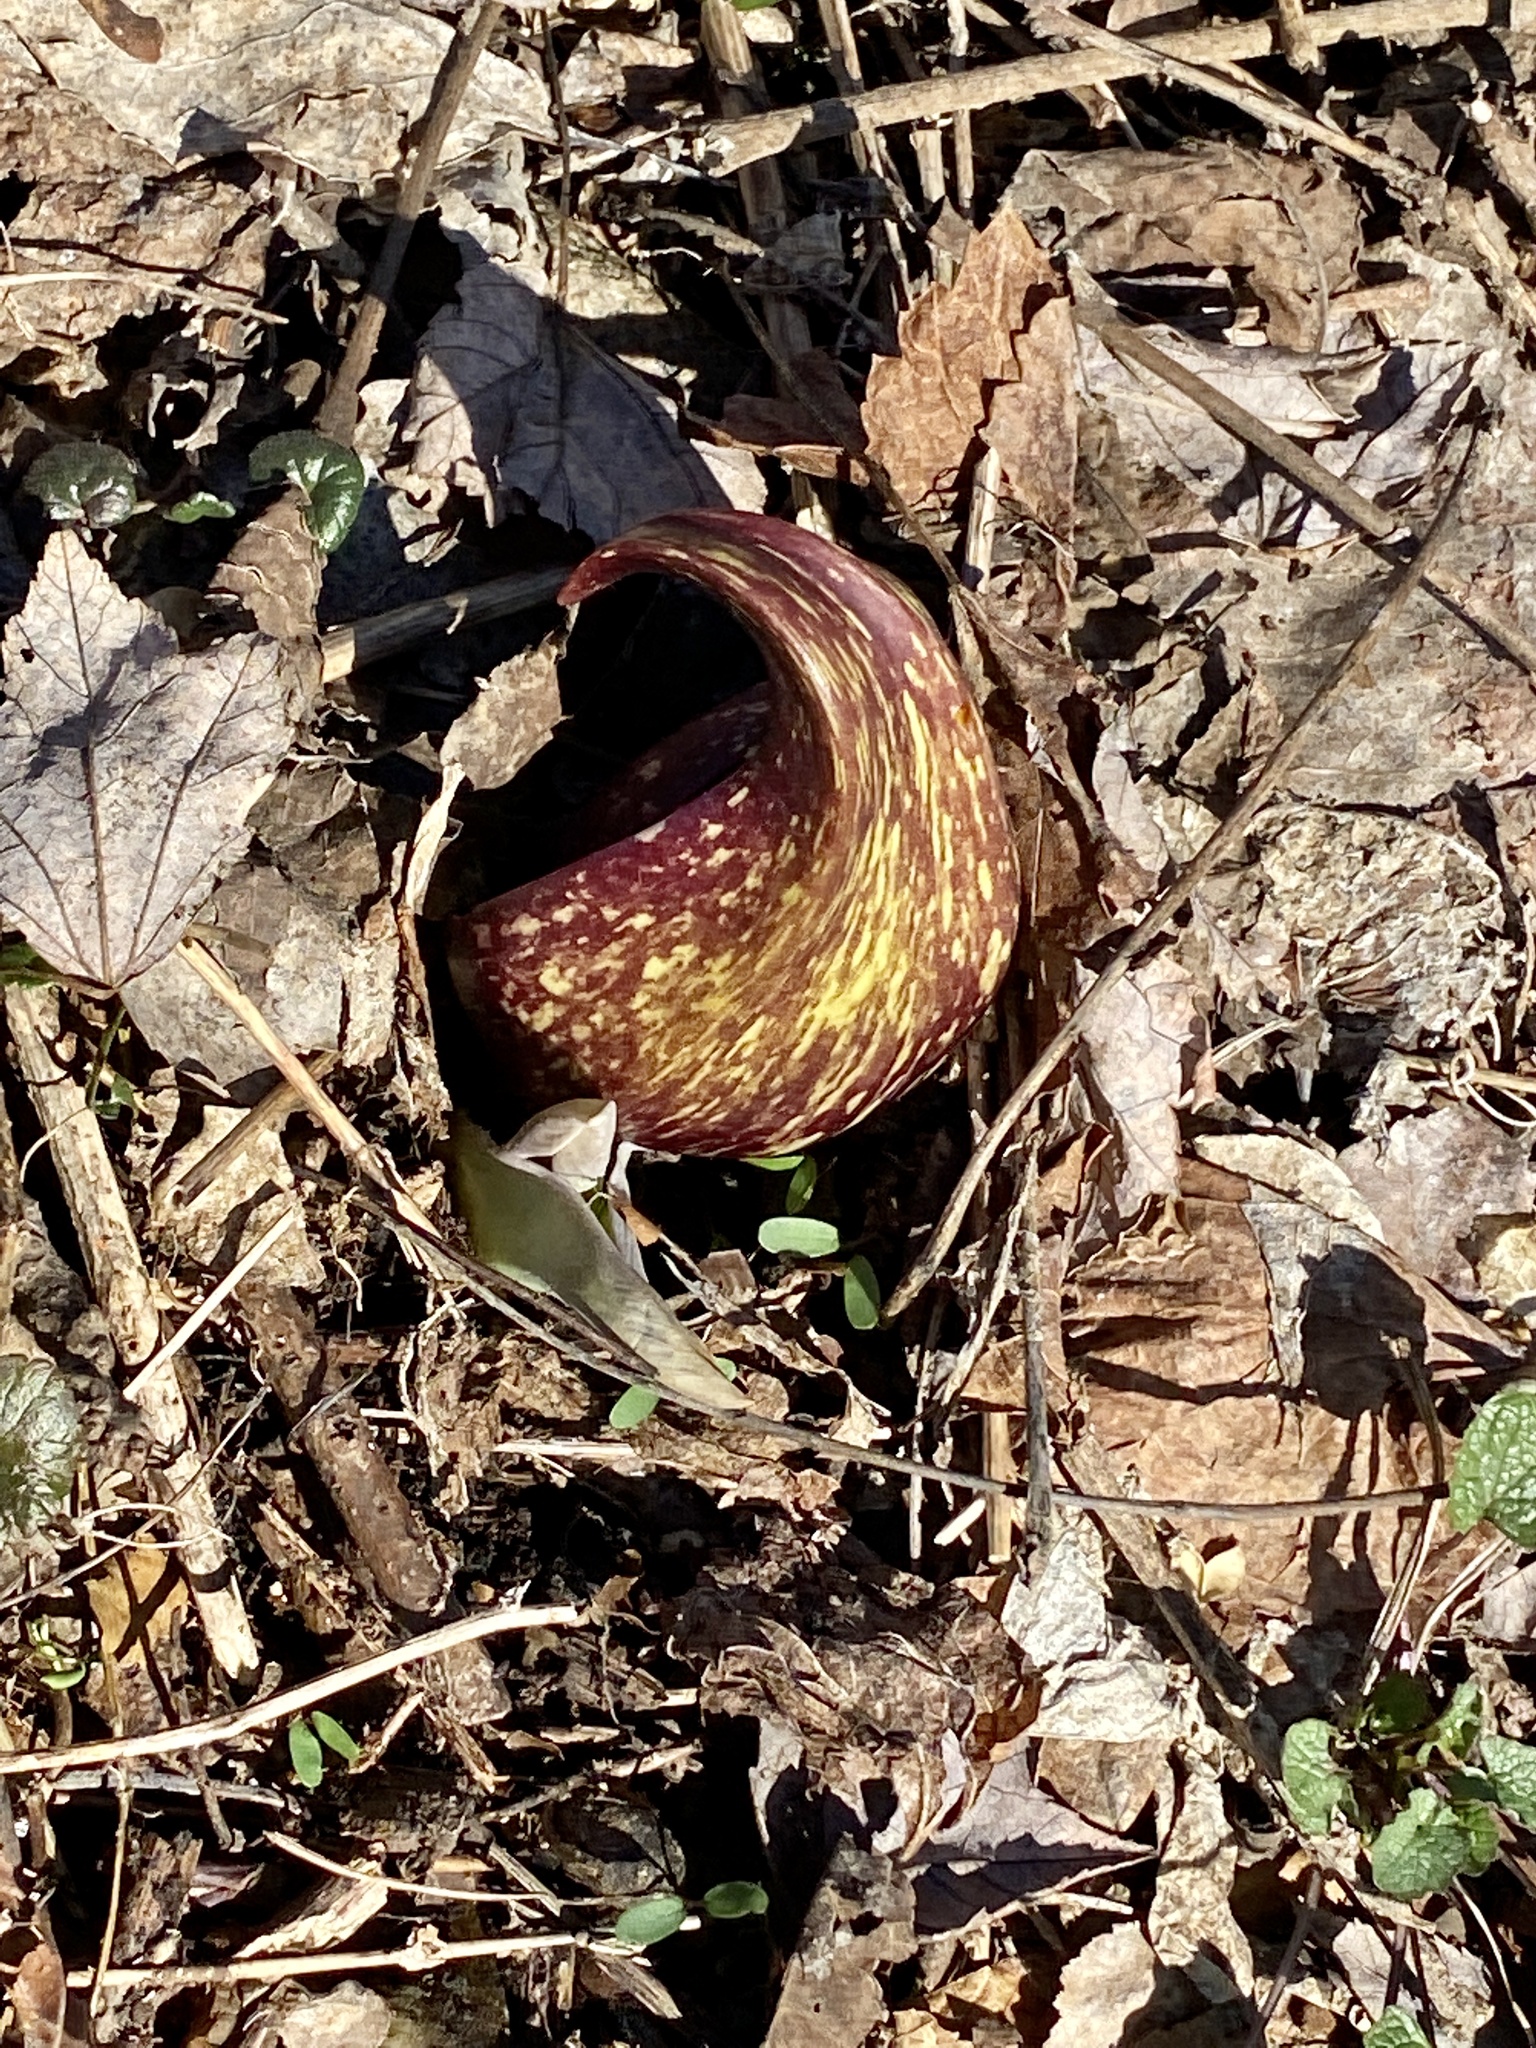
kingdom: Plantae
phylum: Tracheophyta
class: Liliopsida
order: Alismatales
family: Araceae
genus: Symplocarpus
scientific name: Symplocarpus foetidus
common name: Eastern skunk cabbage
